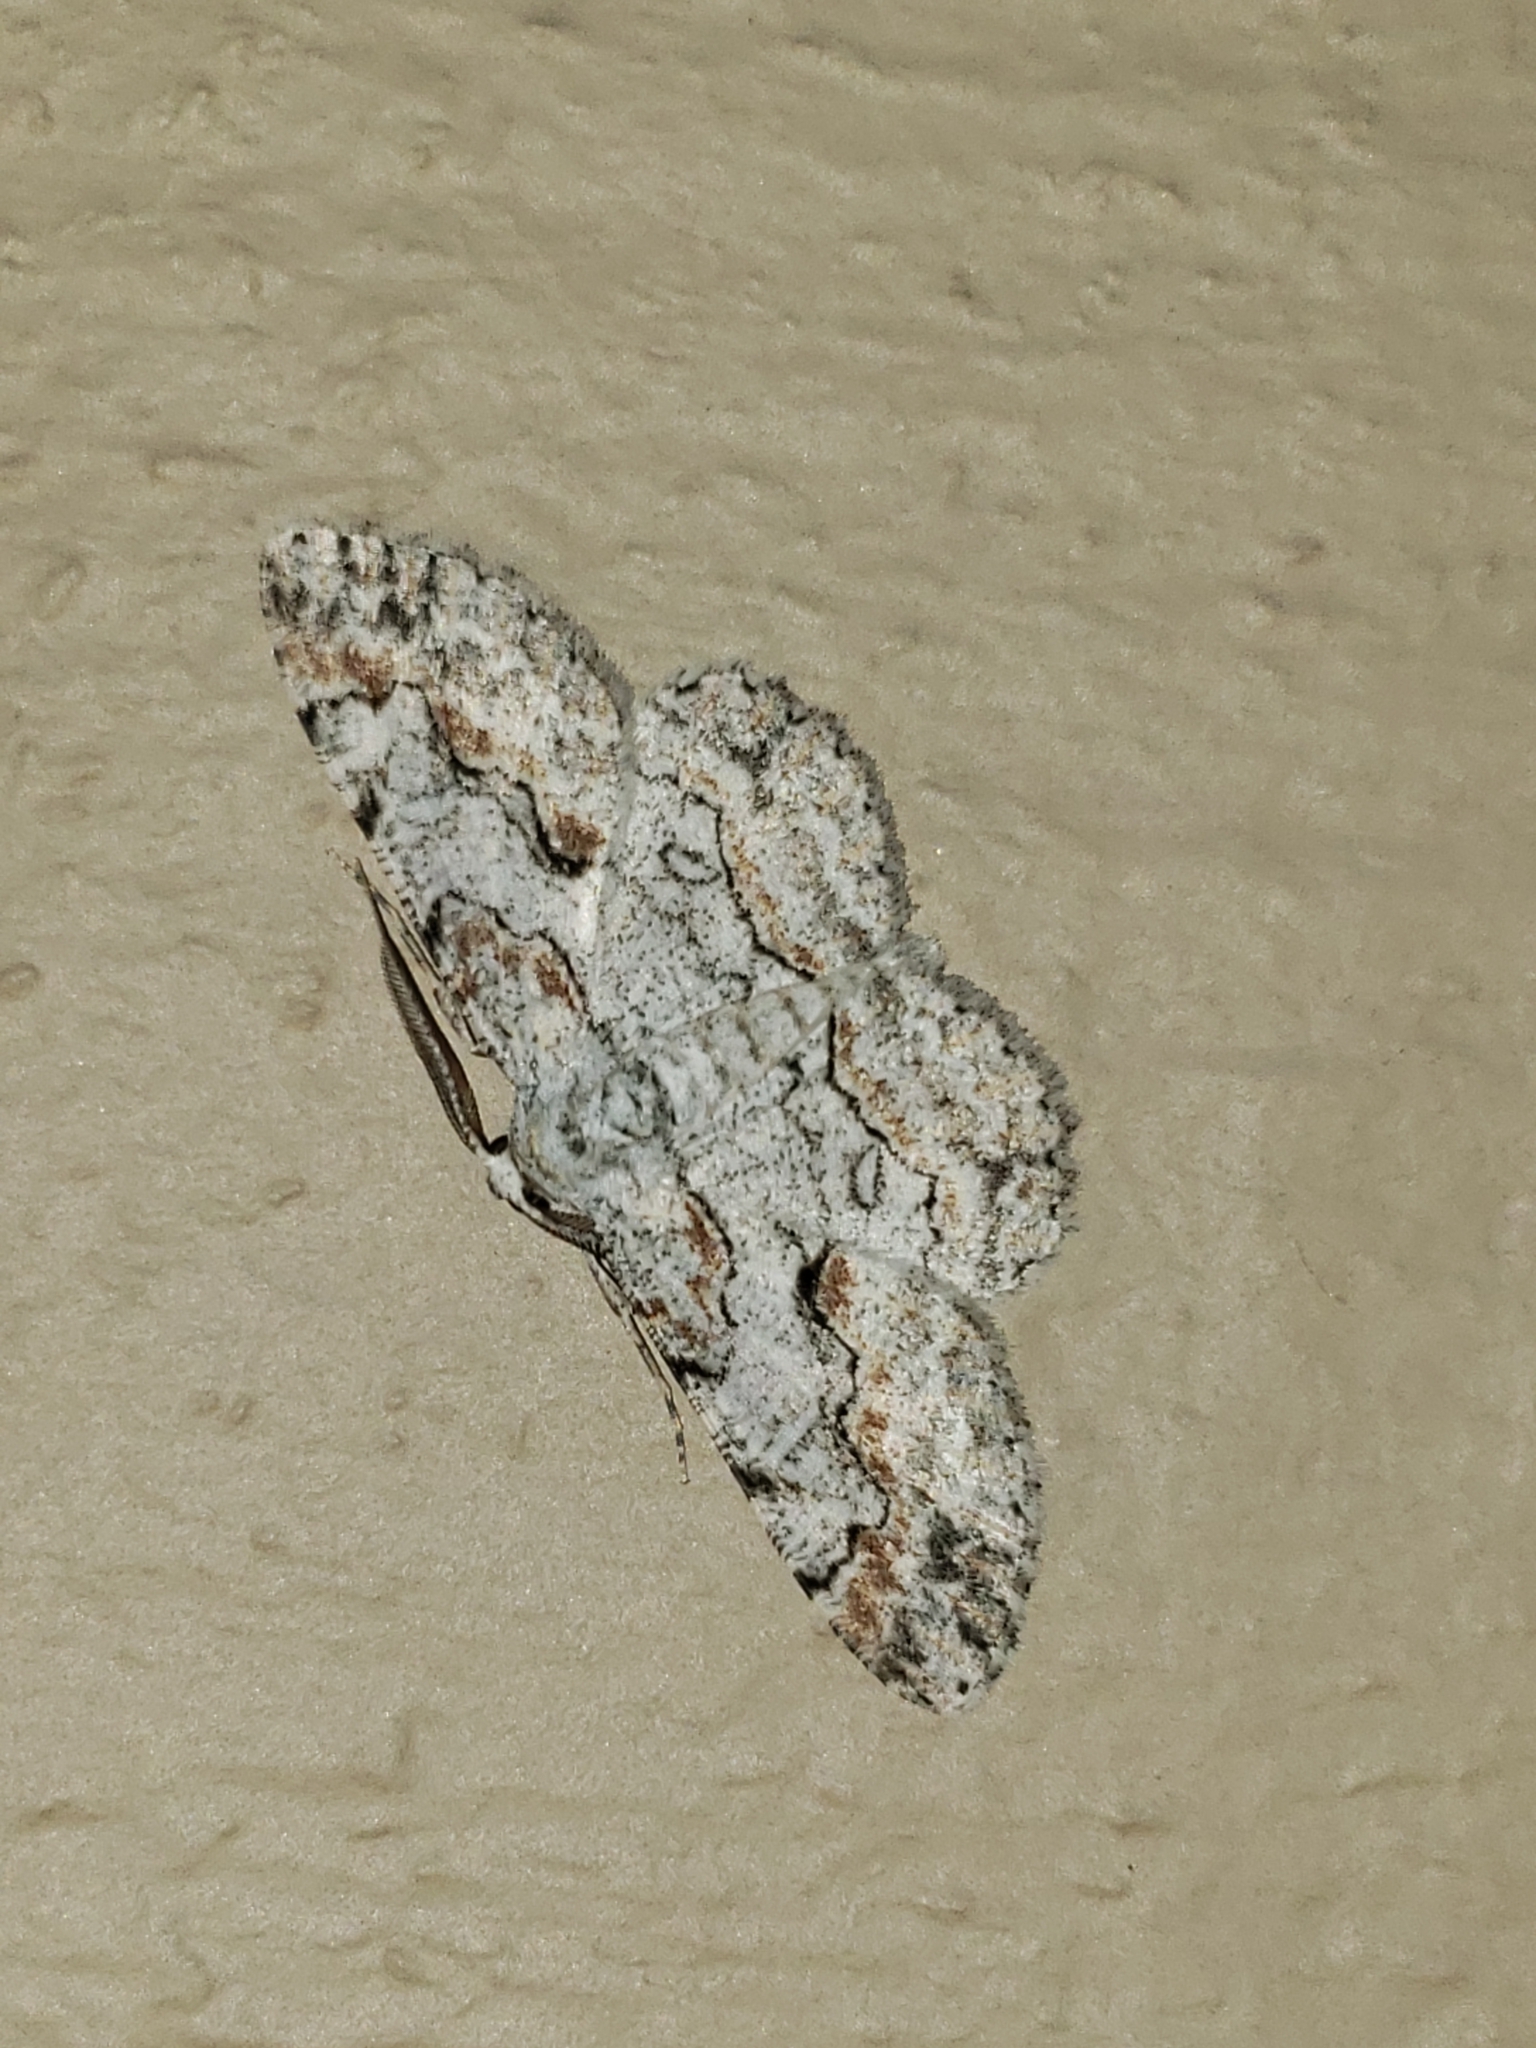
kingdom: Animalia
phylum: Arthropoda
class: Insecta
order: Lepidoptera
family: Geometridae
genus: Iridopsis
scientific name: Iridopsis defectaria
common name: Brown-shaded gray
